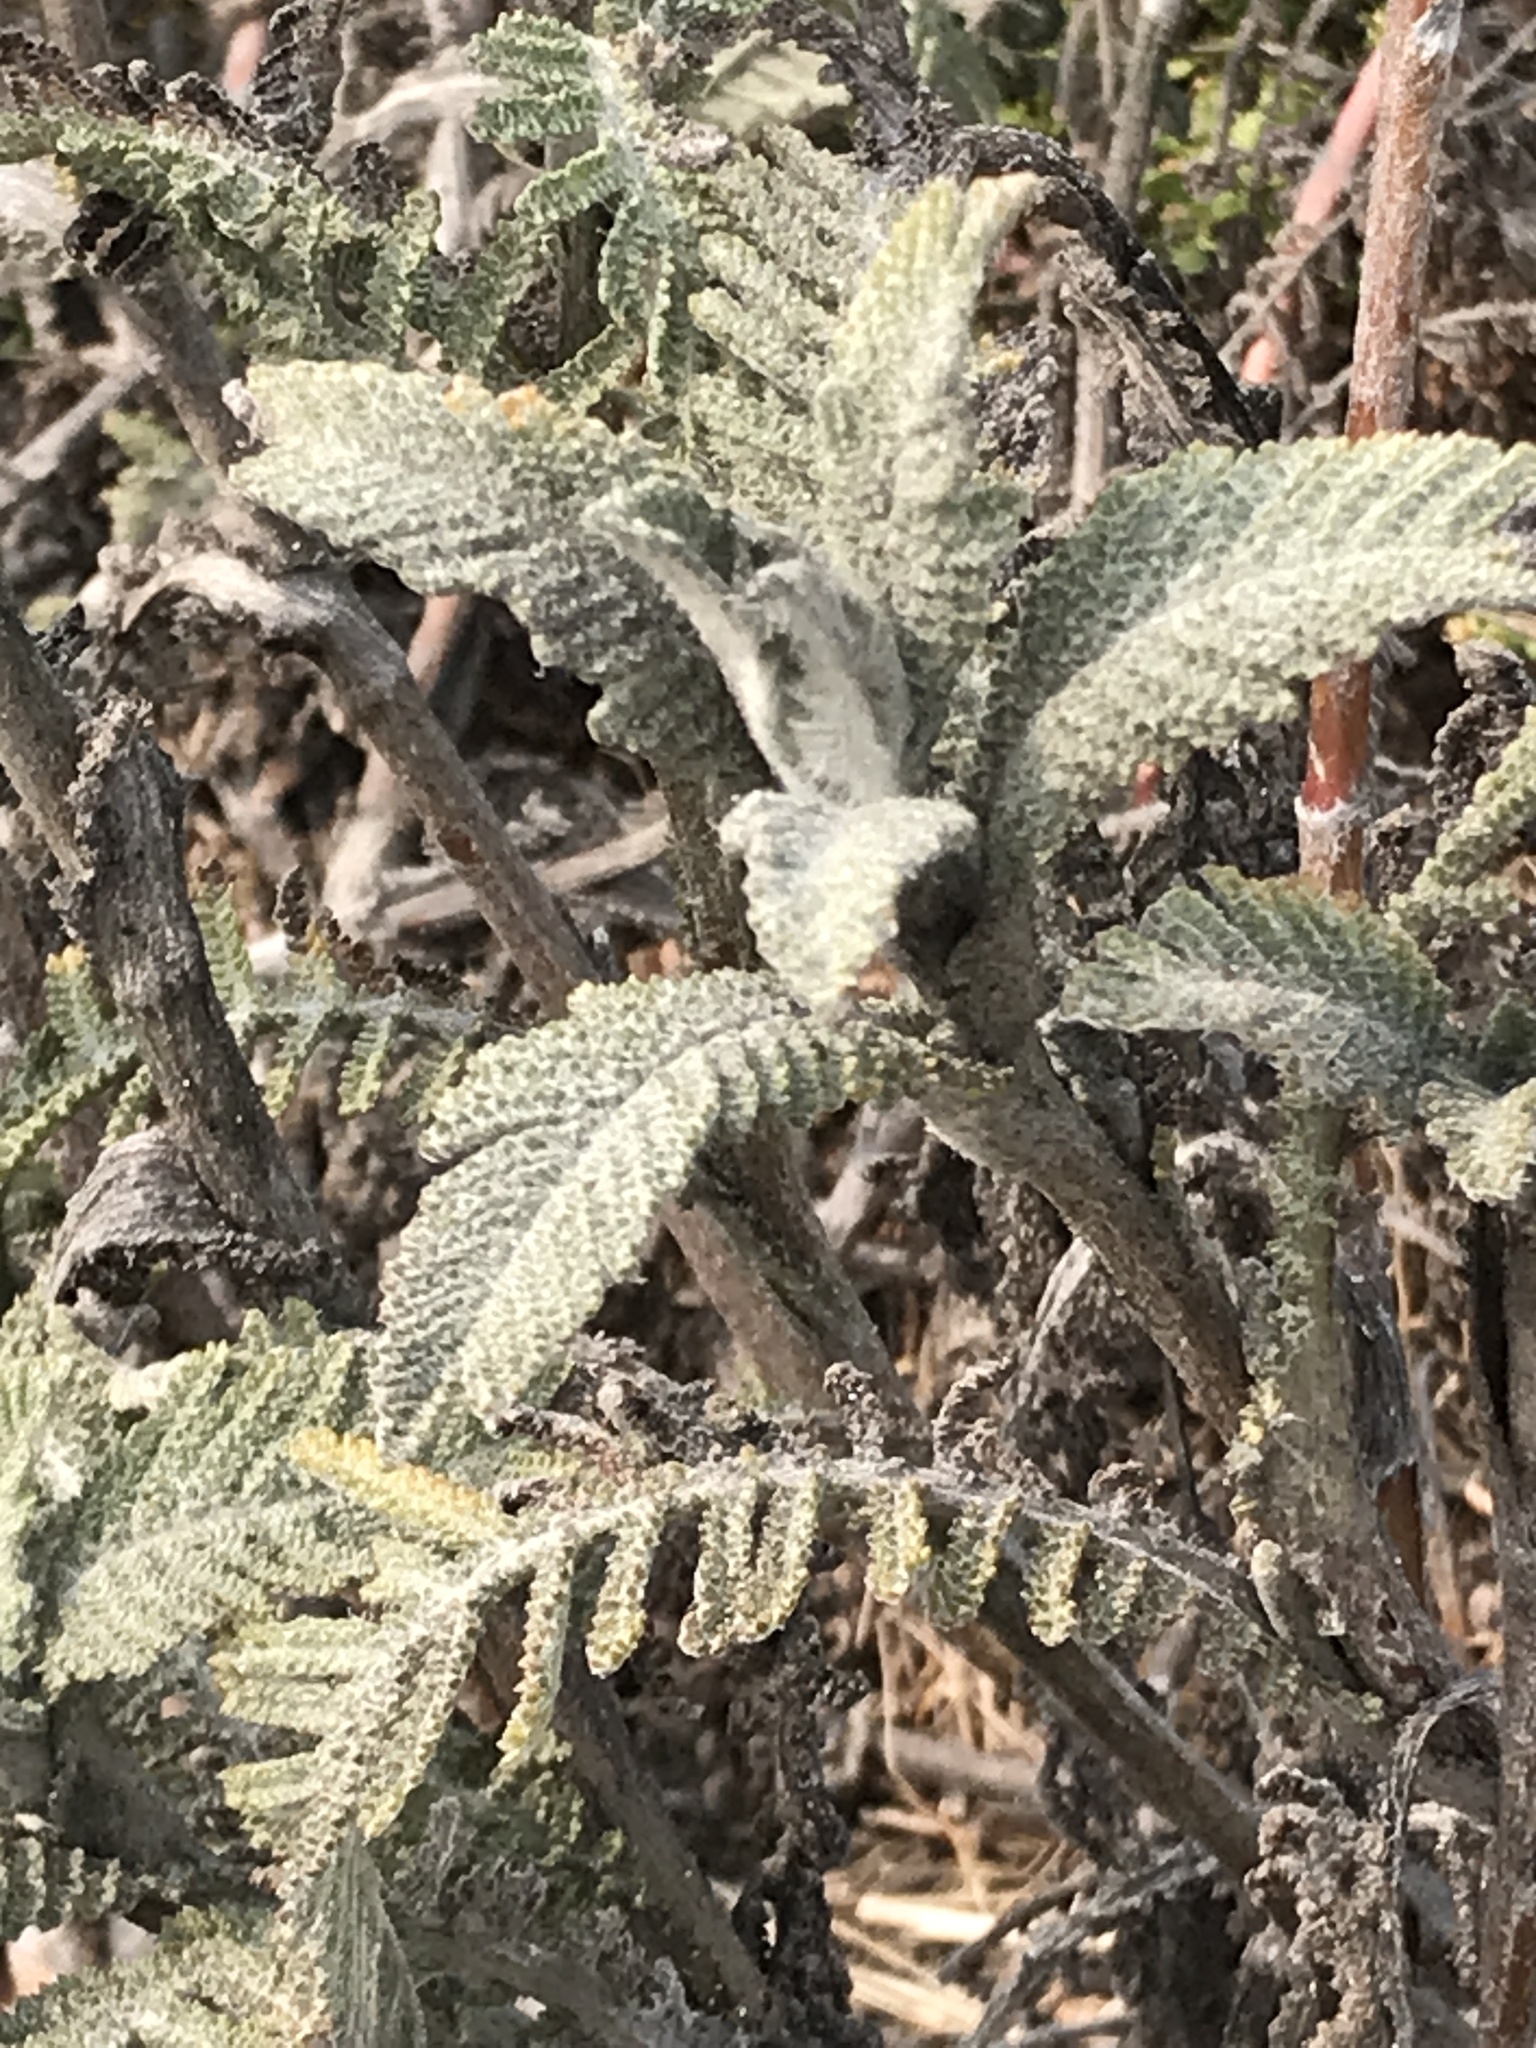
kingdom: Plantae
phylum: Tracheophyta
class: Magnoliopsida
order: Asterales
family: Asteraceae
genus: Tanacetum
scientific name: Tanacetum bipinnatum
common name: Dwarf tansy
